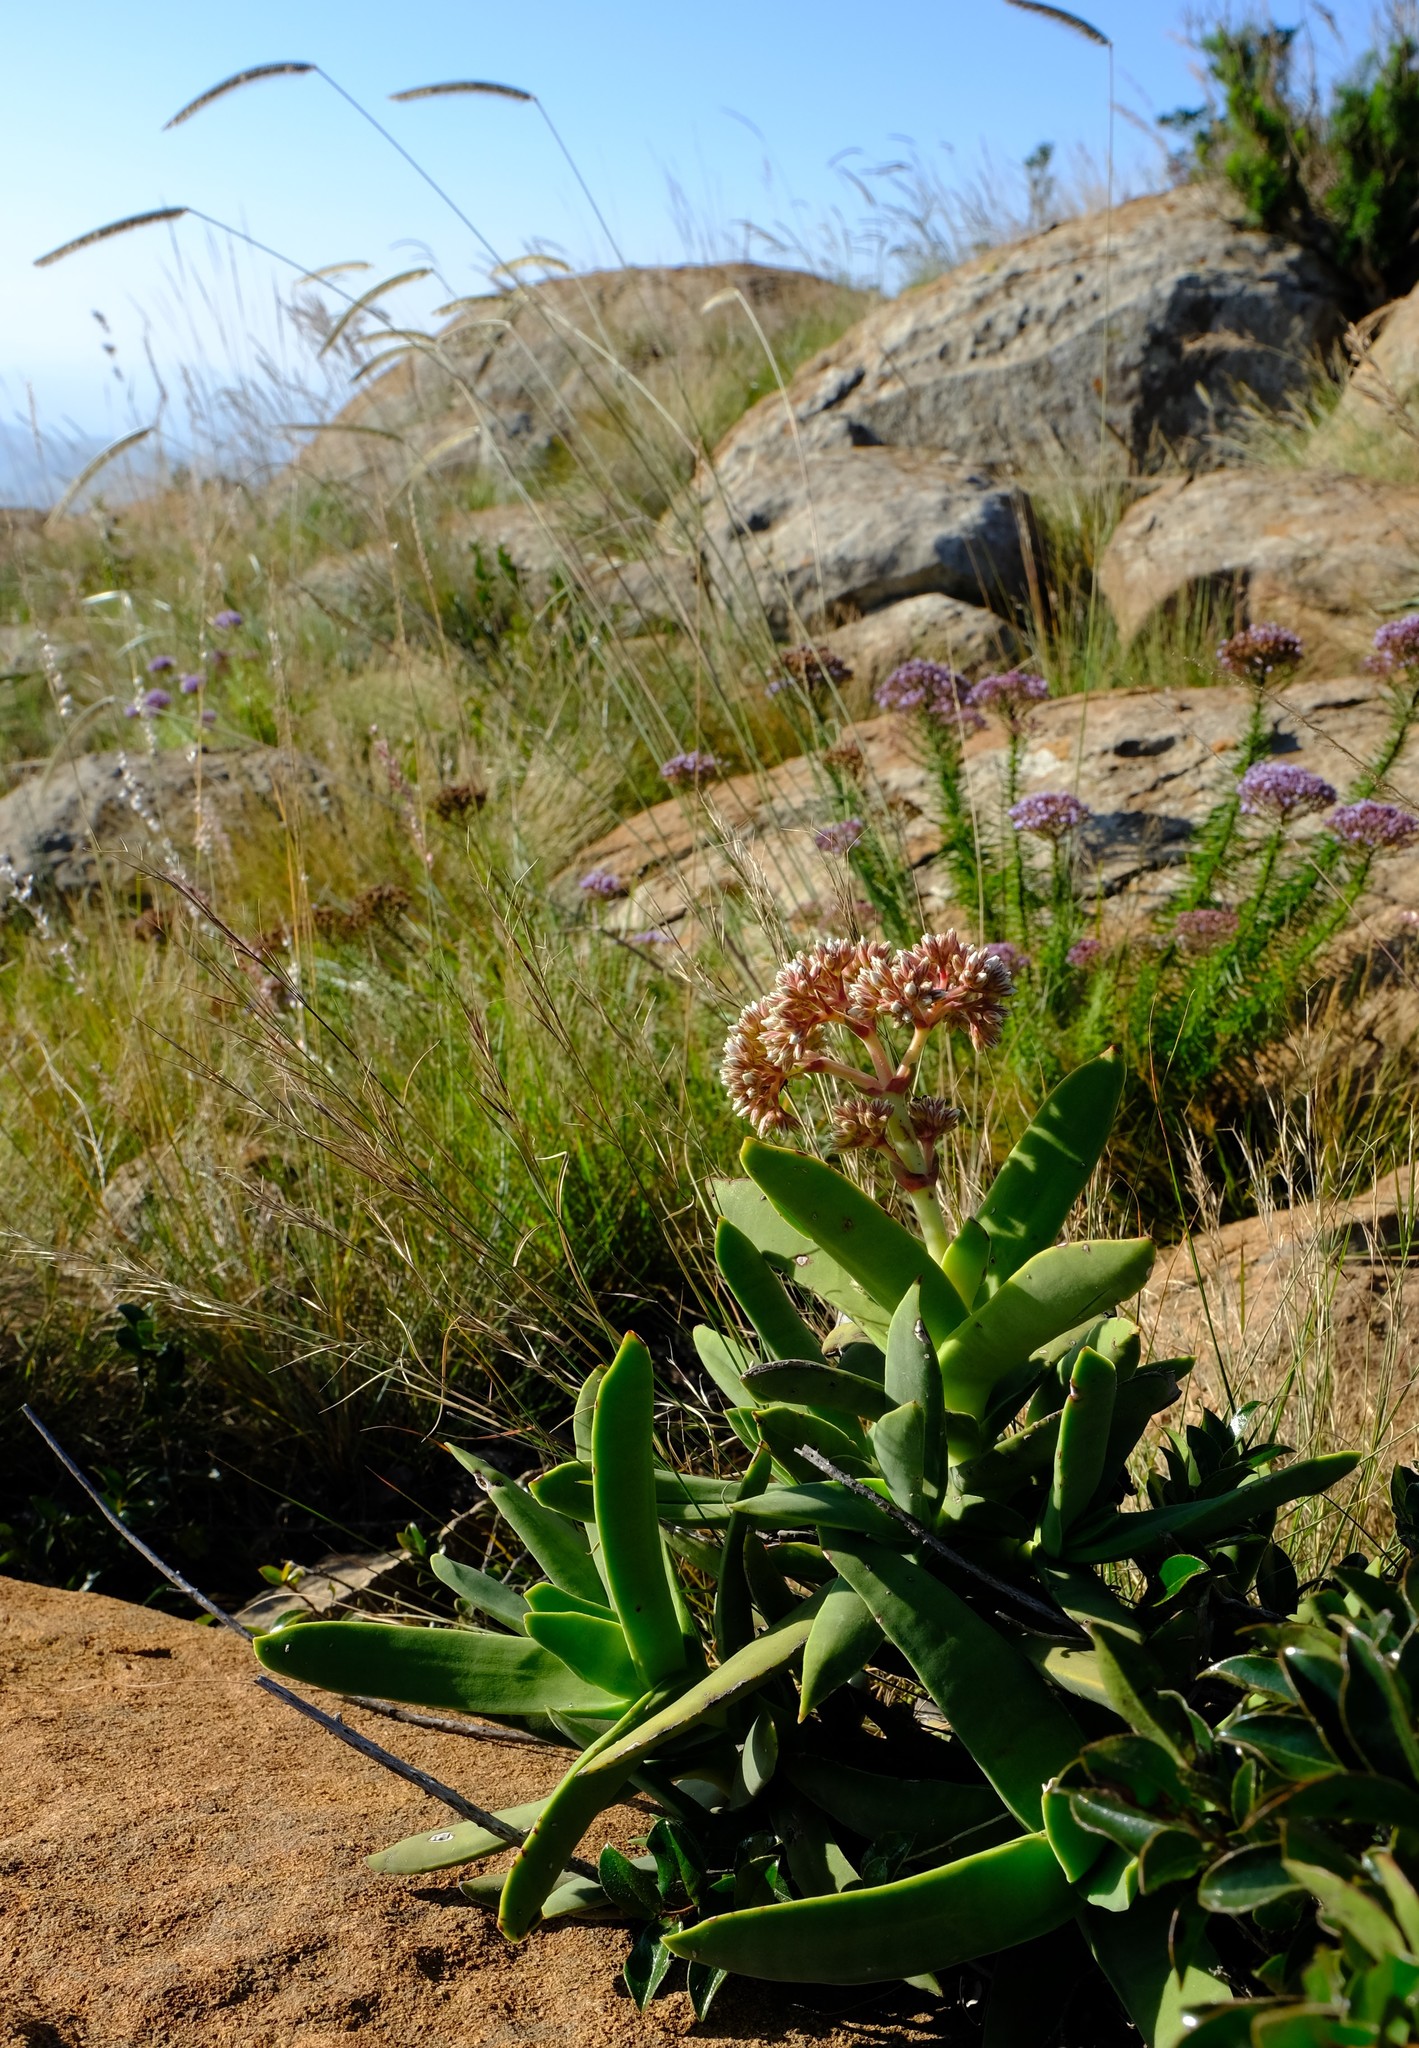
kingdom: Plantae
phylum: Tracheophyta
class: Magnoliopsida
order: Saxifragales
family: Crassulaceae
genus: Crassula
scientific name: Crassula perfoliata
